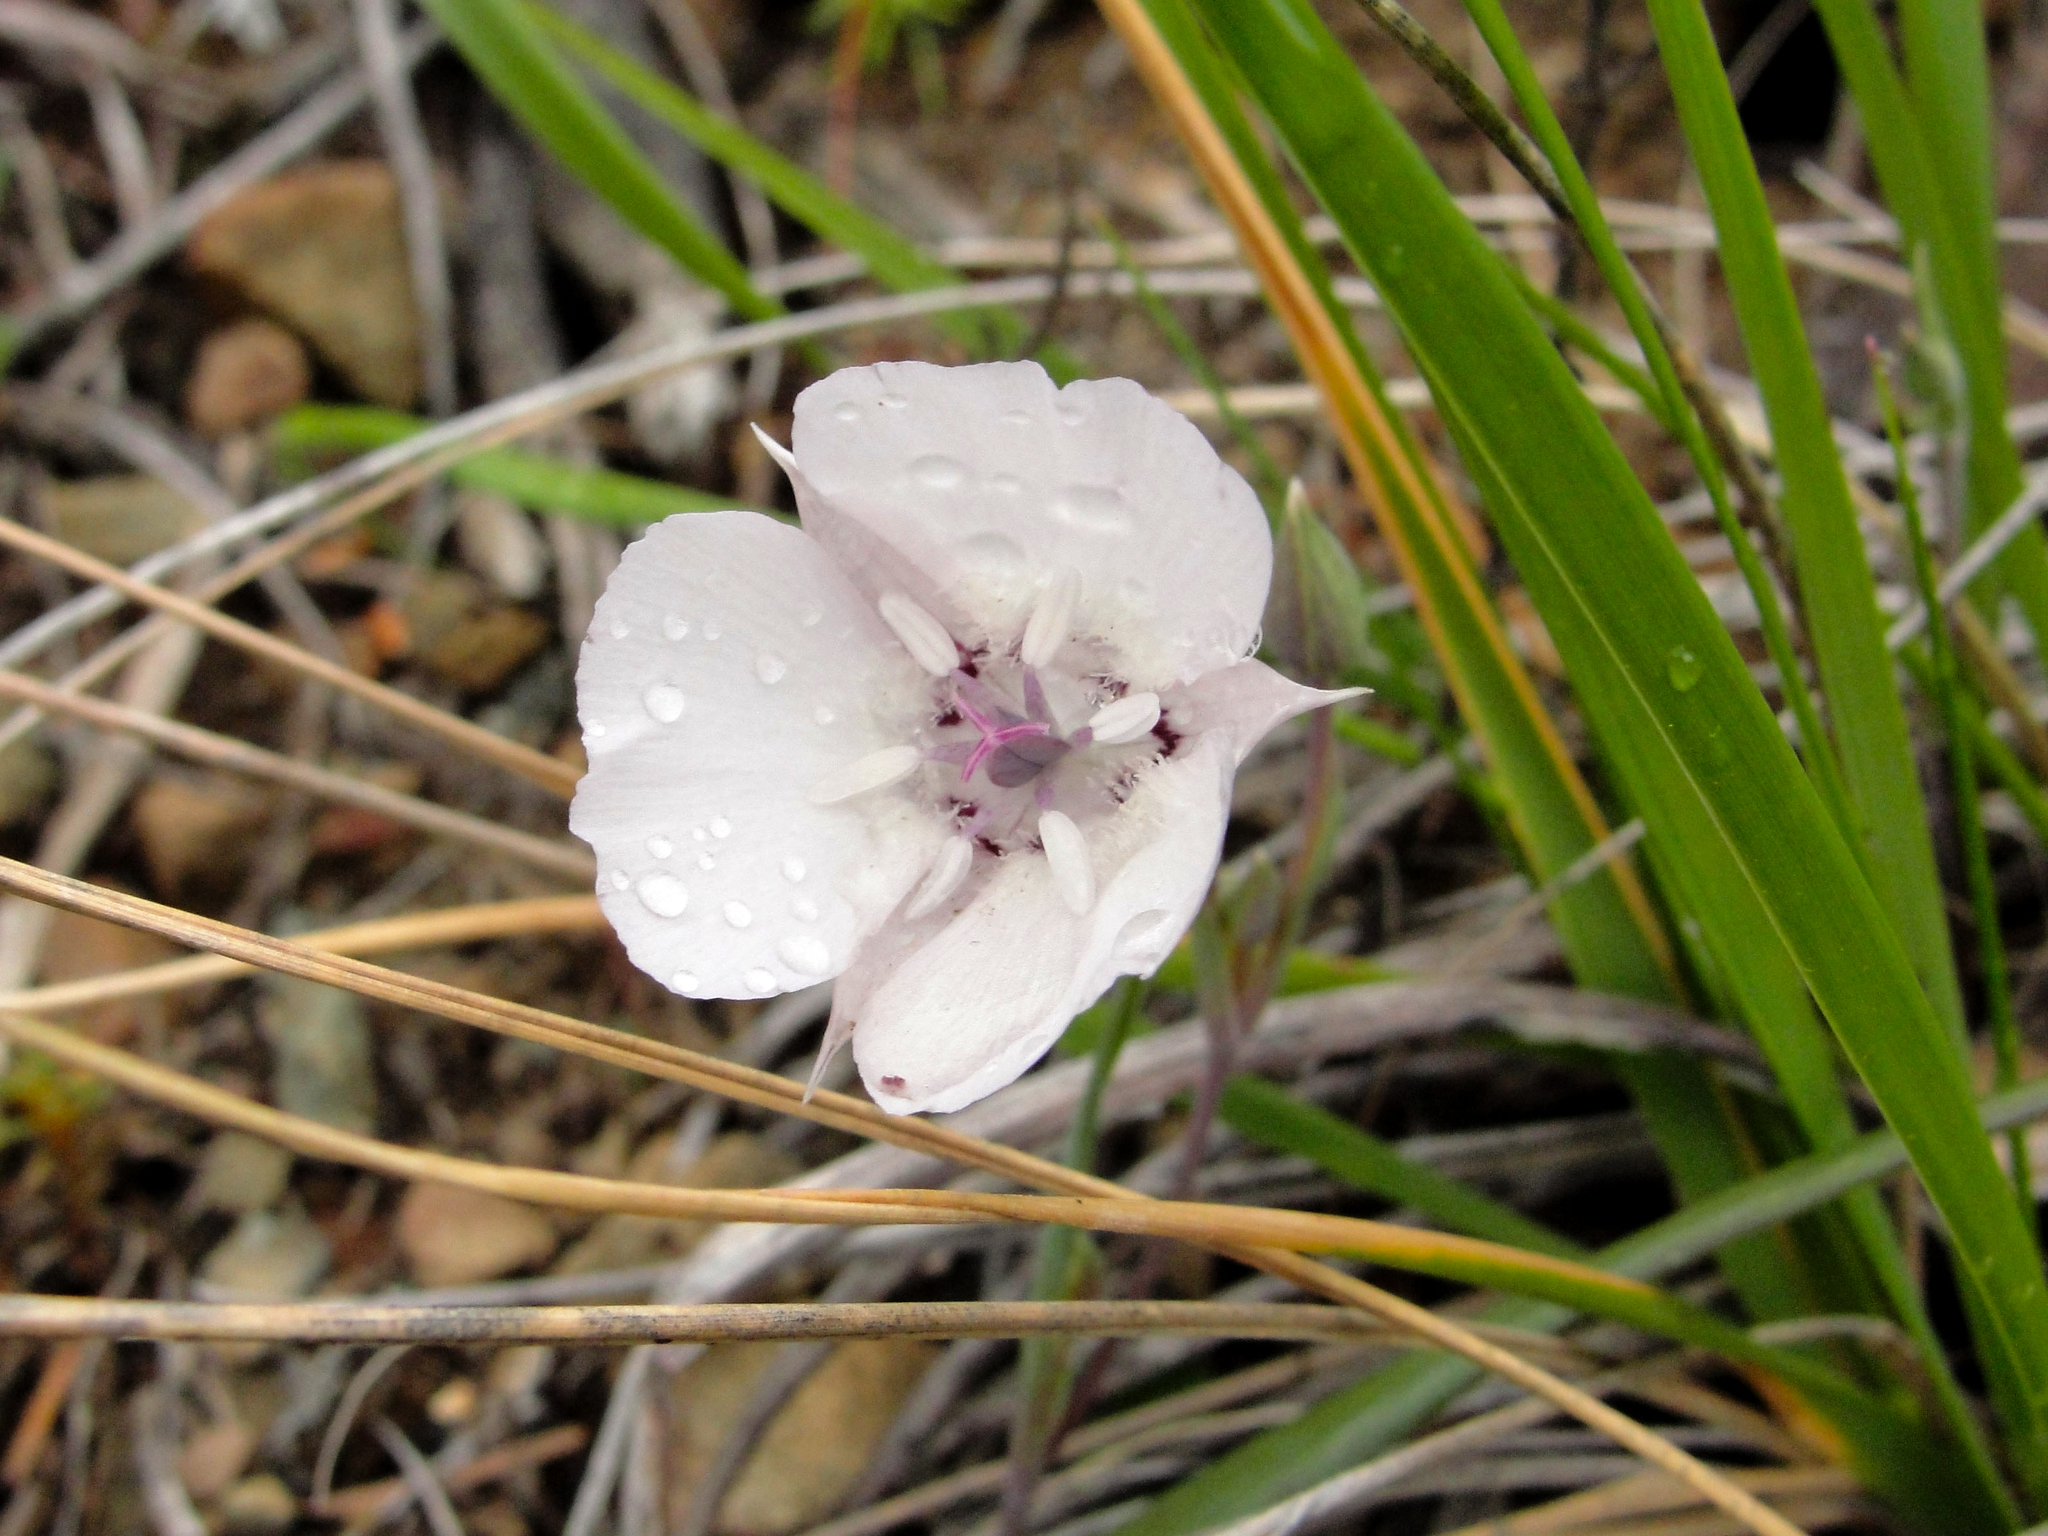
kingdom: Plantae
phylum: Tracheophyta
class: Liliopsida
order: Liliales
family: Liliaceae
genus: Calochortus
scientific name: Calochortus umbellatus
